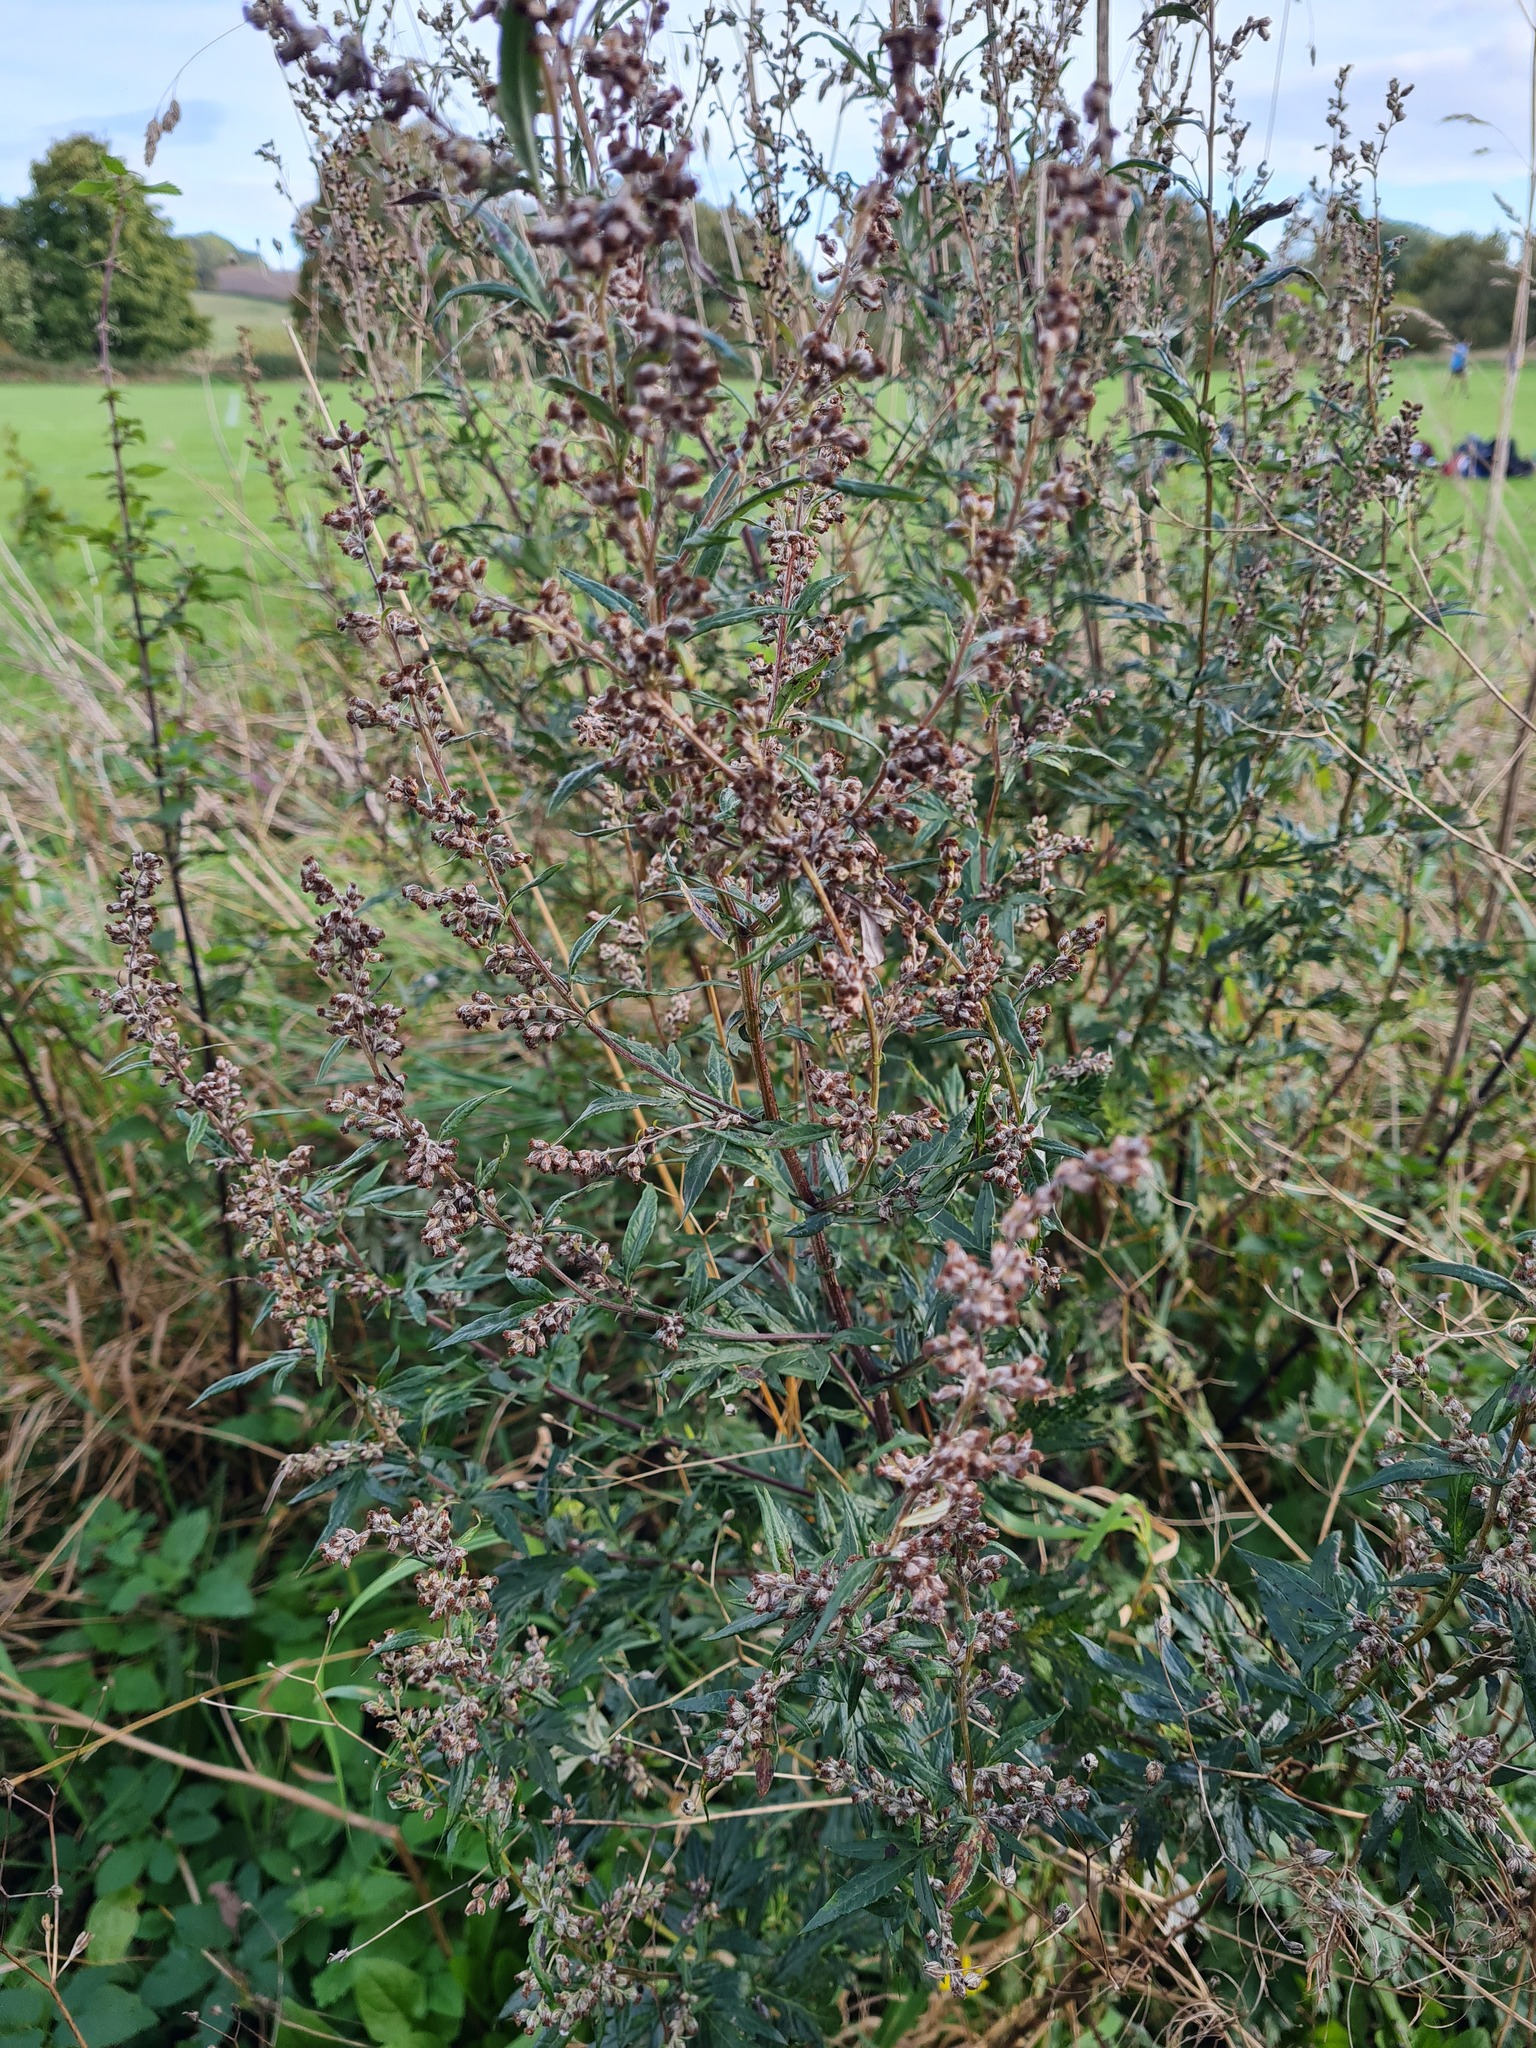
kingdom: Plantae
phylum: Tracheophyta
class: Magnoliopsida
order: Asterales
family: Asteraceae
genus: Artemisia
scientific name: Artemisia vulgaris
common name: Mugwort
